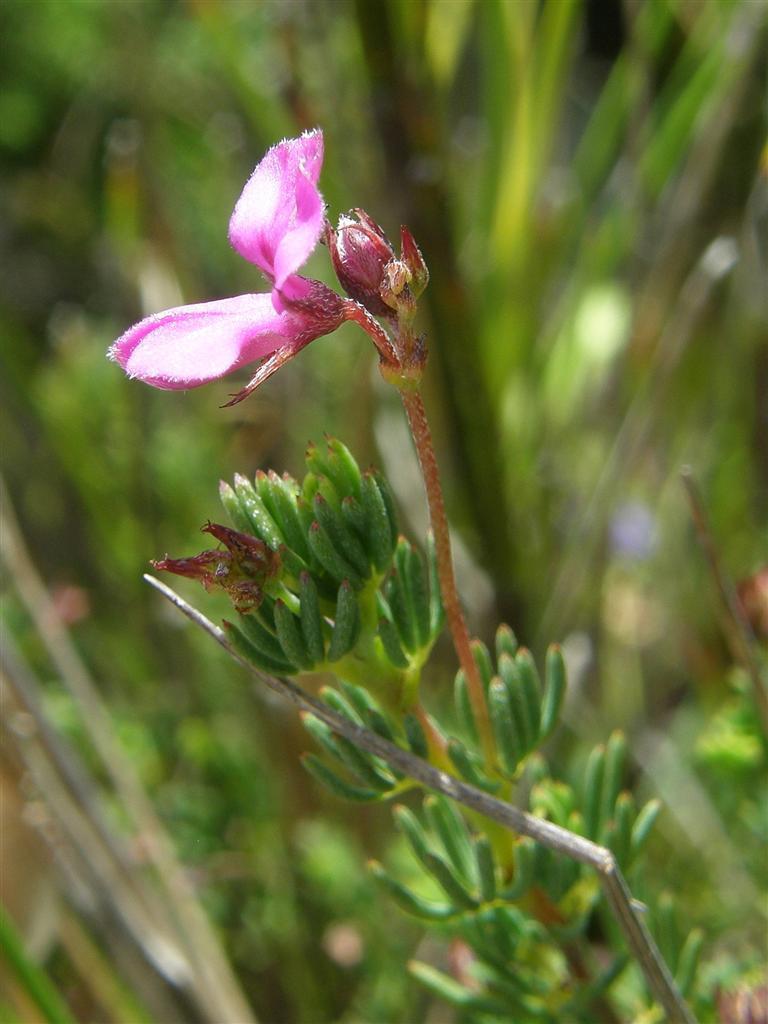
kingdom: Plantae
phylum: Tracheophyta
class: Magnoliopsida
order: Fabales
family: Fabaceae
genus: Indigofera
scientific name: Indigofera quinquefolia
